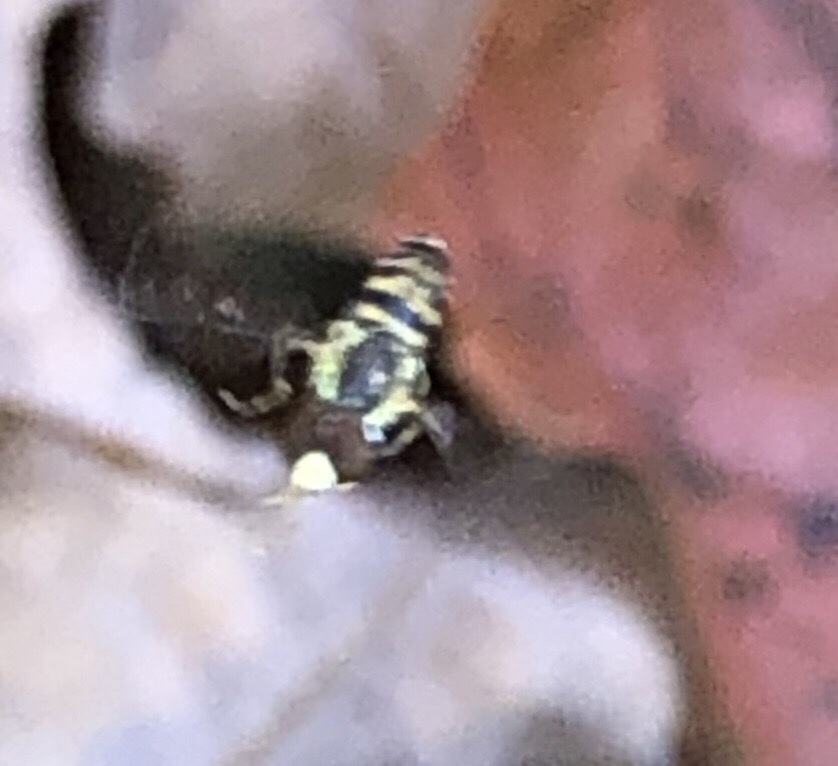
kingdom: Animalia
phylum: Arthropoda
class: Insecta
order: Diptera
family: Syrphidae
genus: Toxomerus
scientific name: Toxomerus geminatus
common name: Eastern calligrapher
